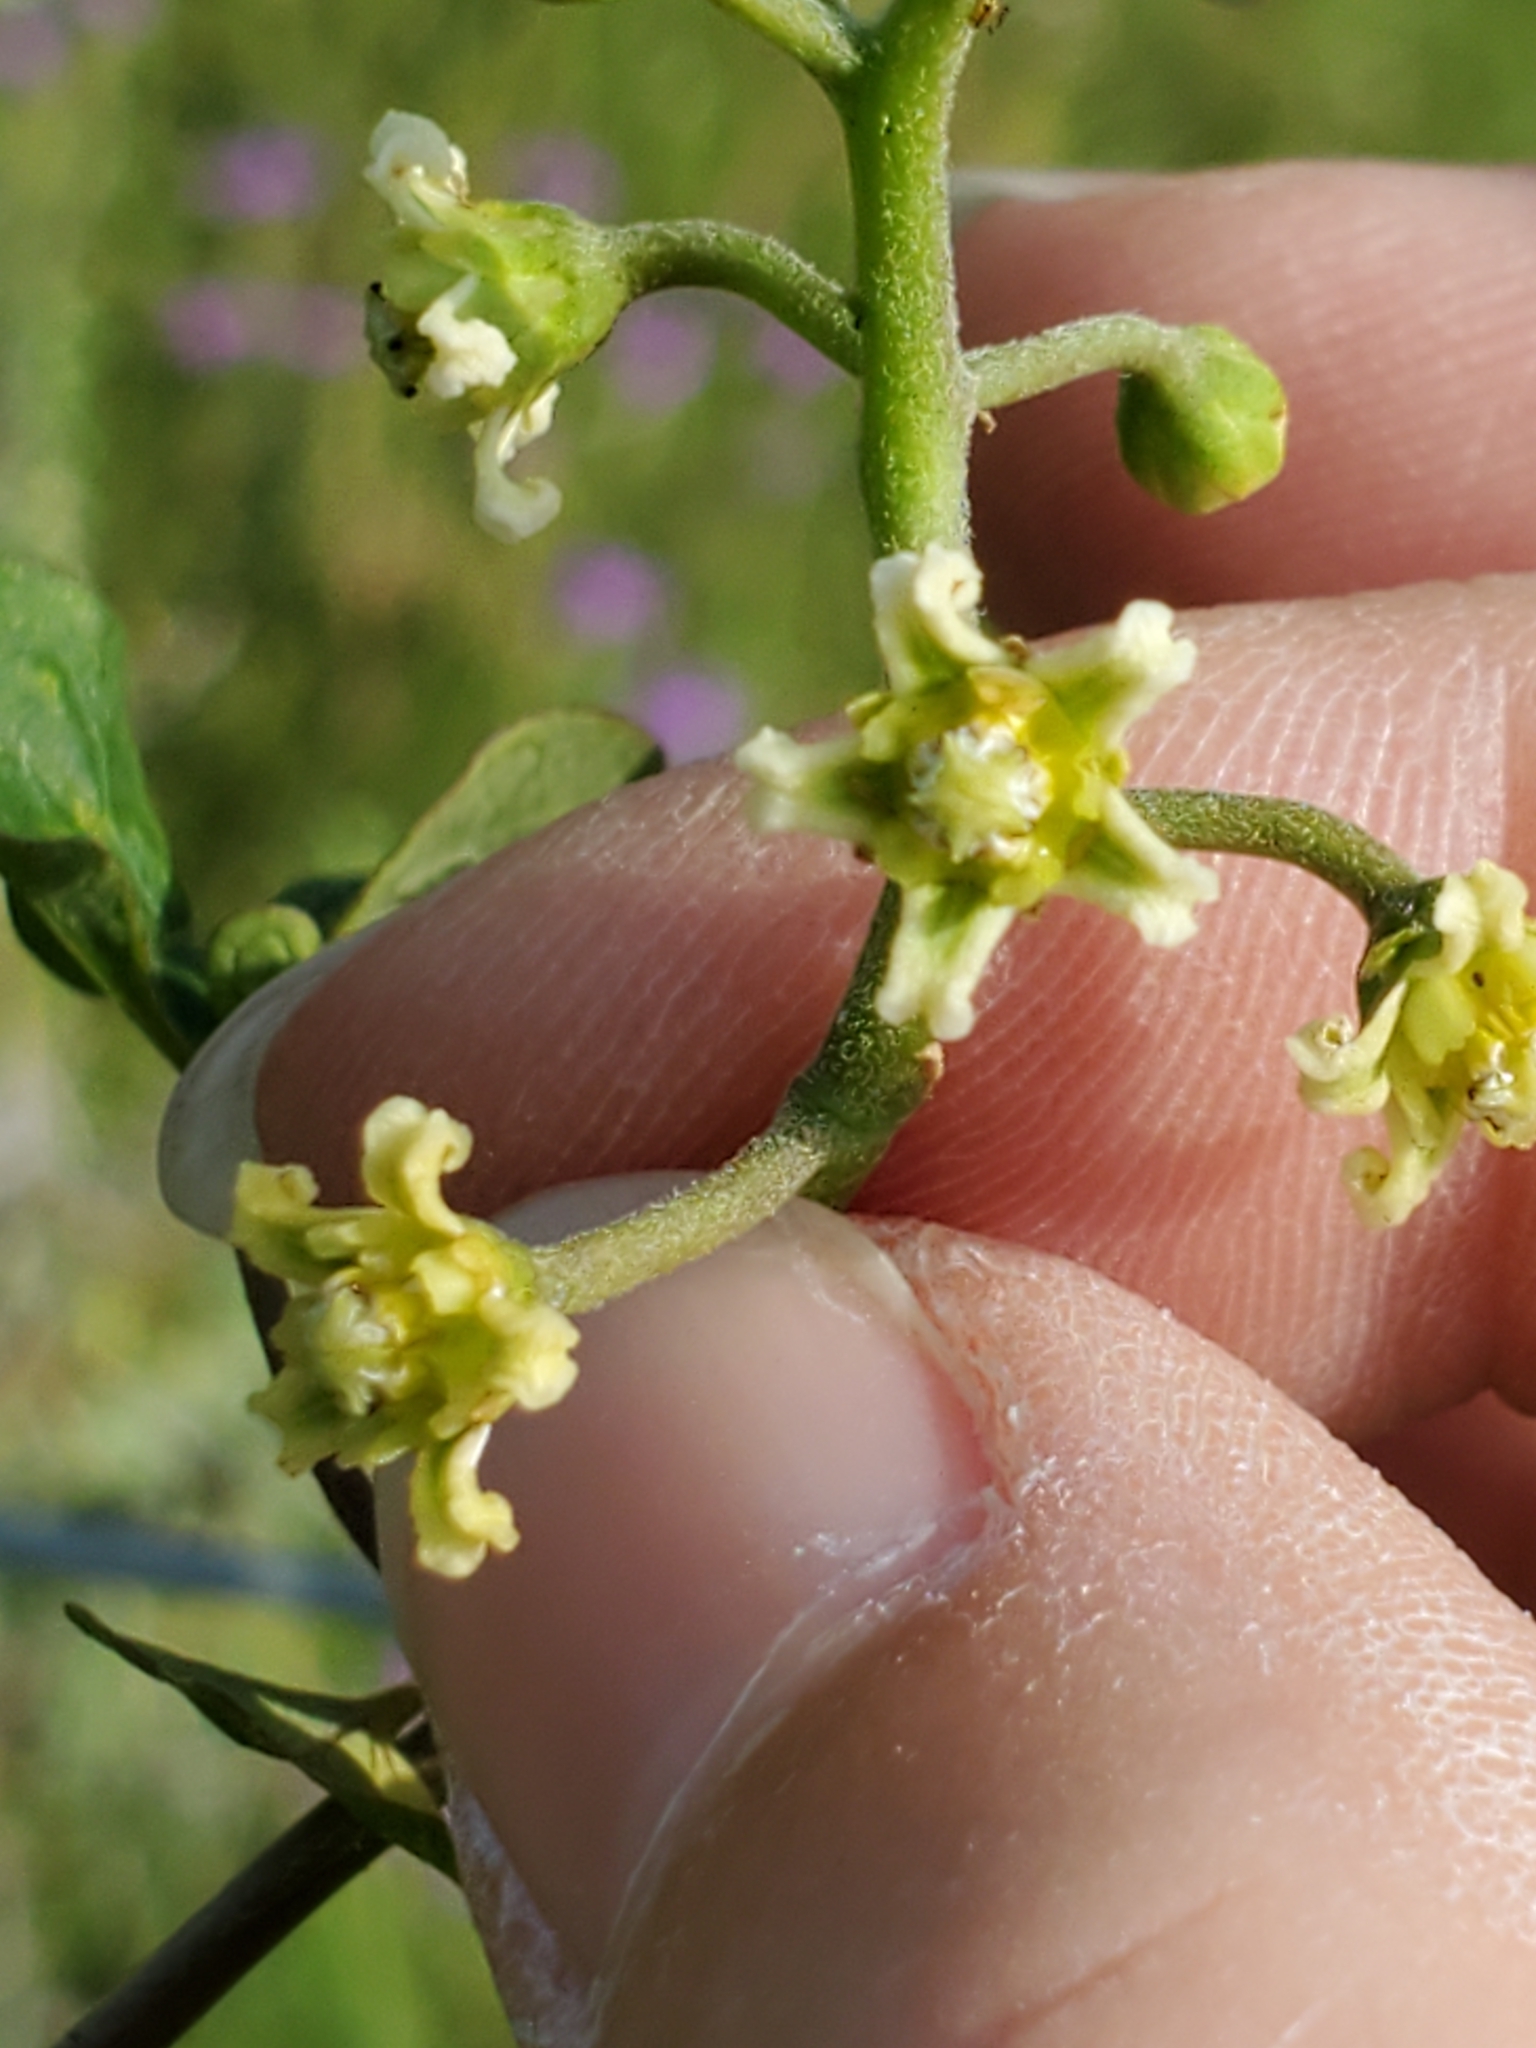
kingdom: Plantae
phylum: Tracheophyta
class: Magnoliopsida
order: Gentianales
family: Apocynaceae
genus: Cynanchum
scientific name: Cynanchum racemosum
